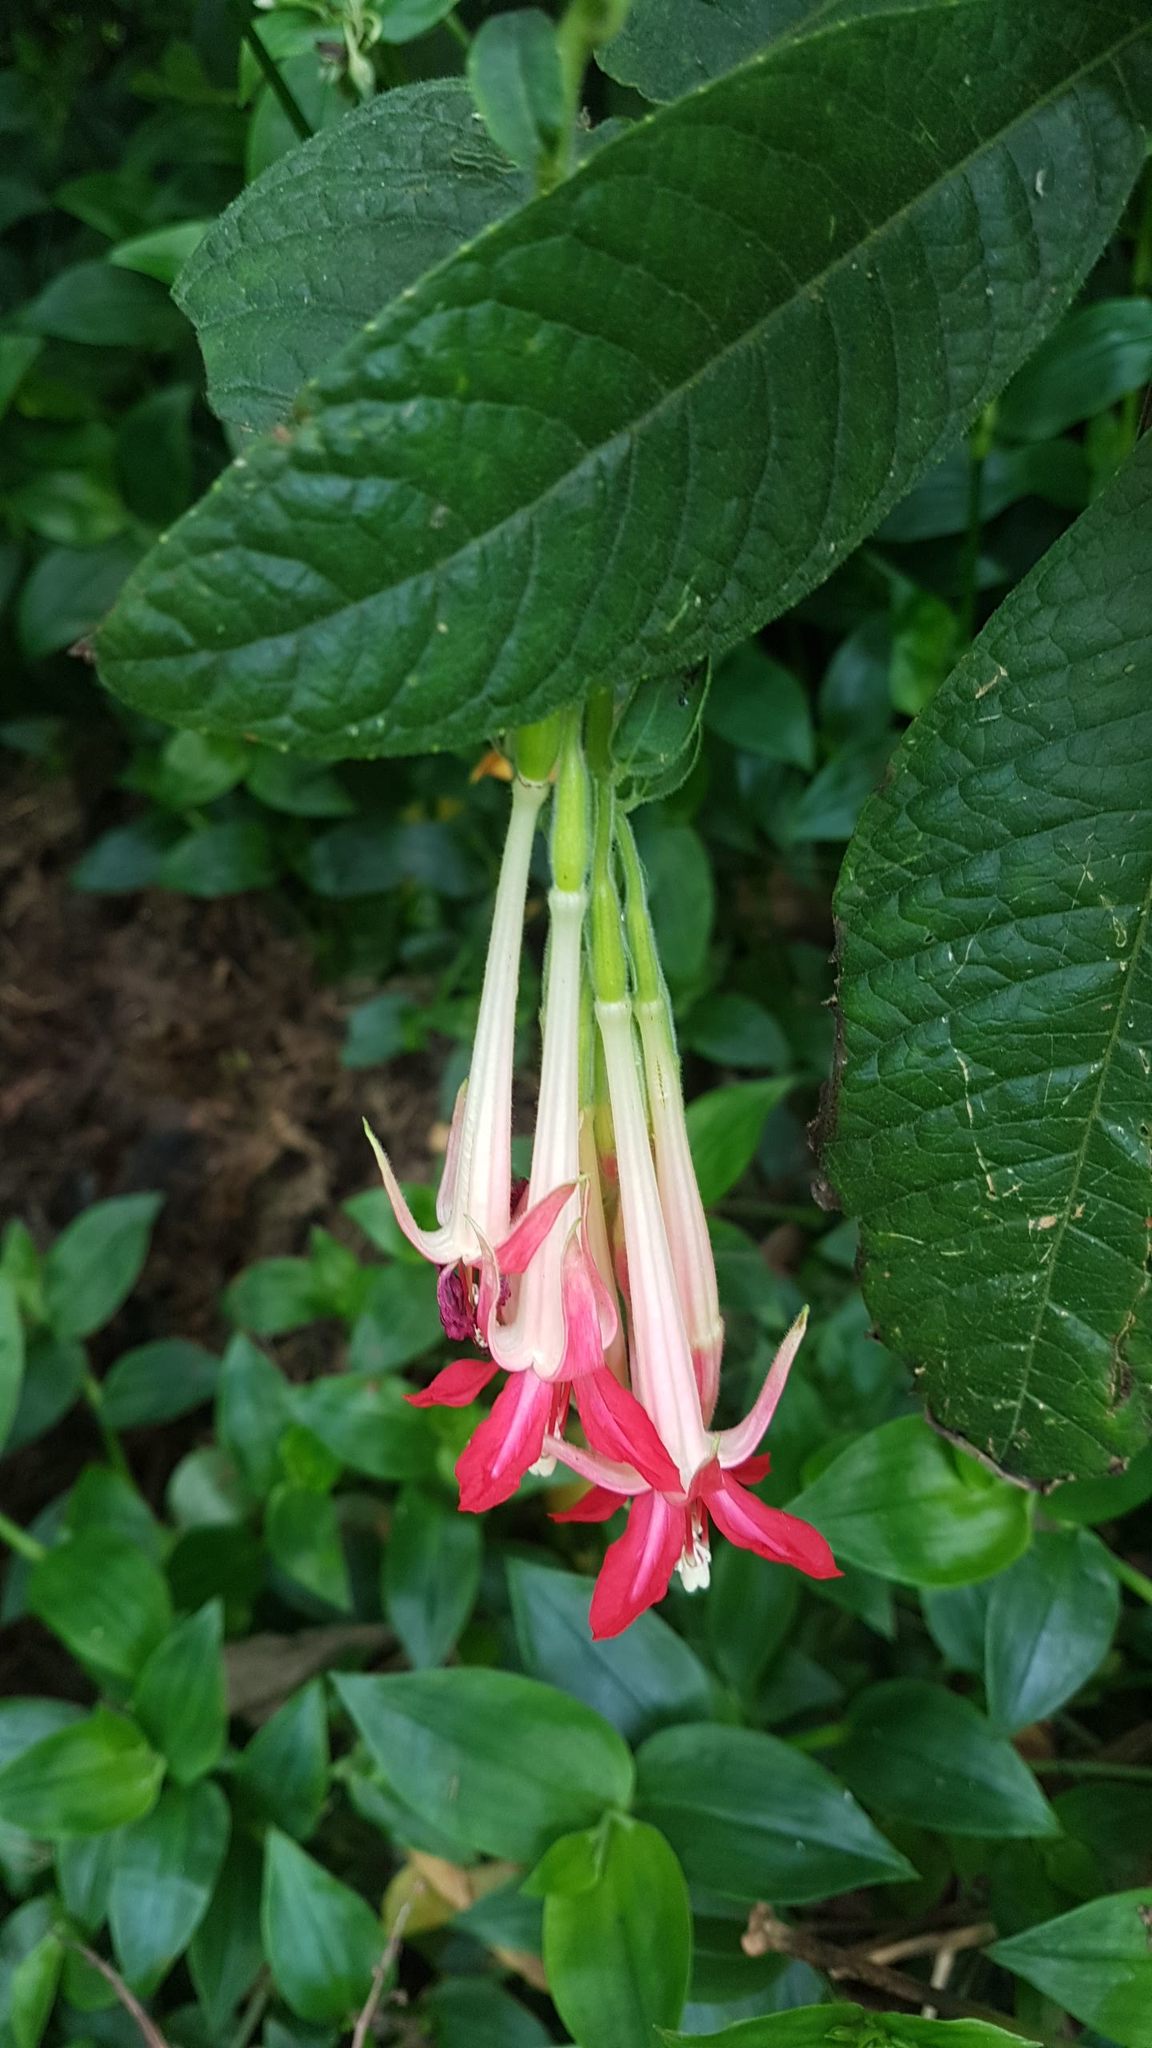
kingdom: Plantae
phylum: Tracheophyta
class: Magnoliopsida
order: Myrtales
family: Onagraceae
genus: Fuchsia
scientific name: Fuchsia boliviana
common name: Bolivian fuchsia
